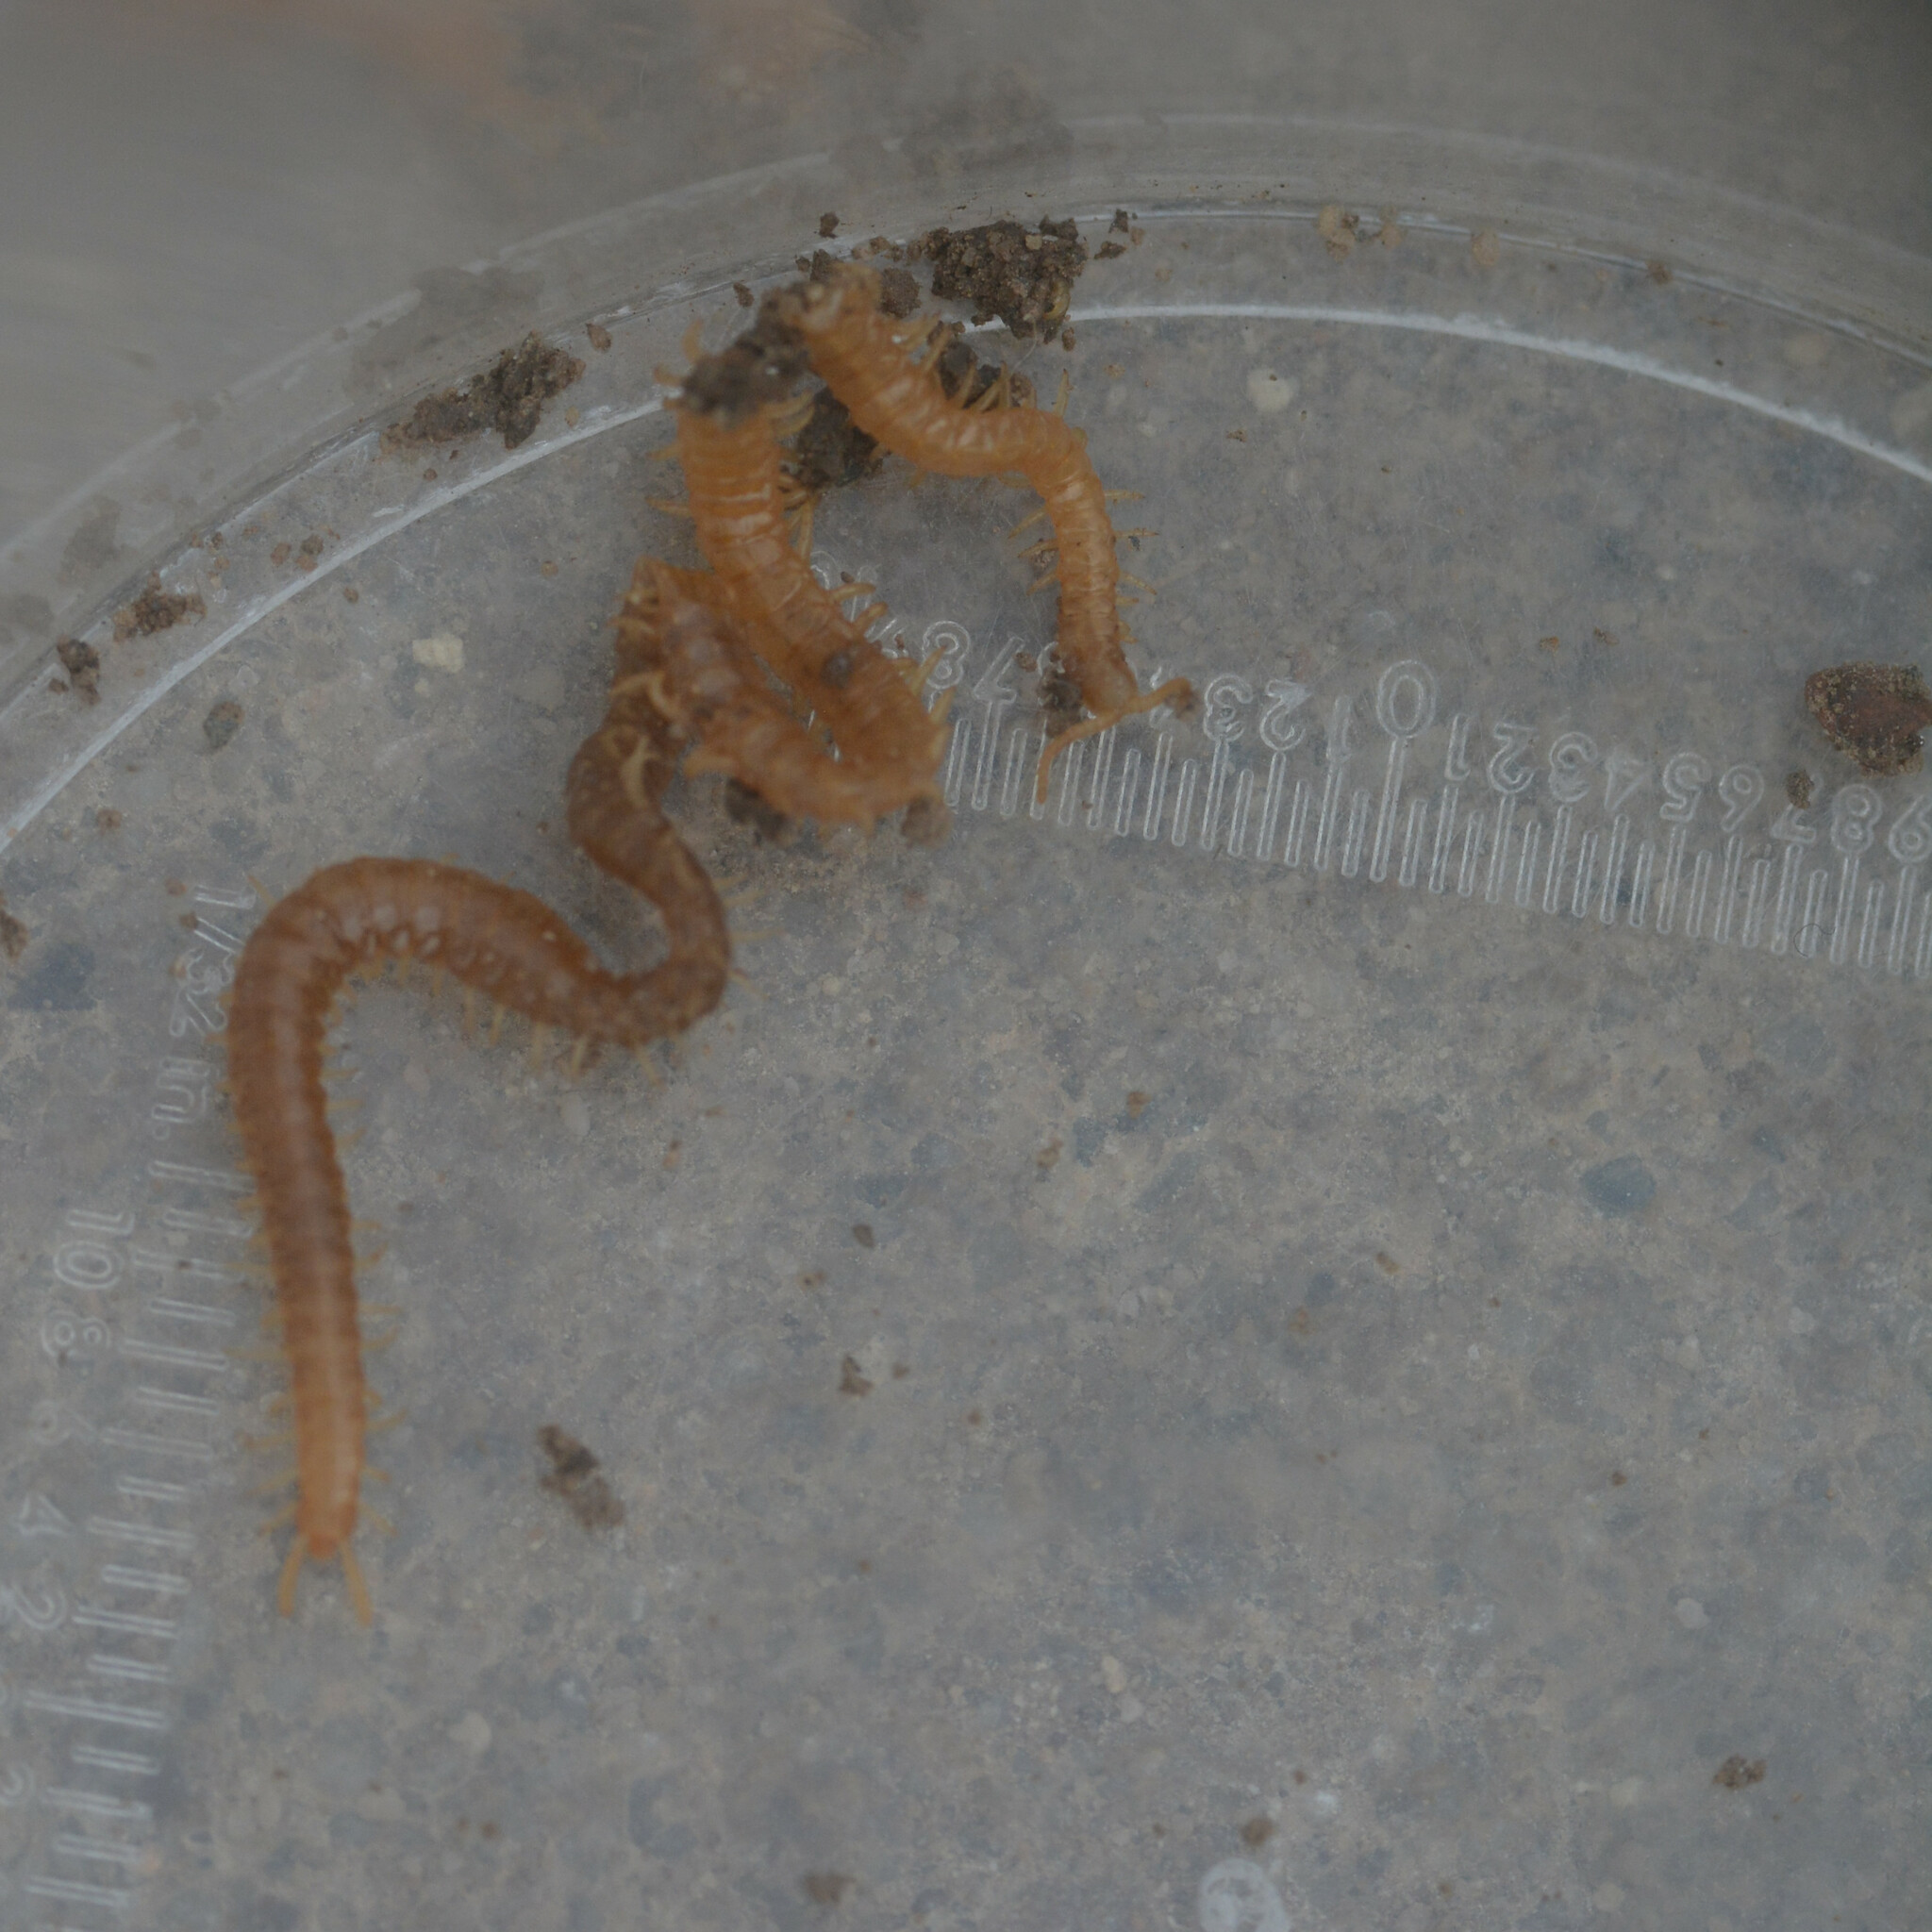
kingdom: Animalia
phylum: Arthropoda
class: Chilopoda
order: Geophilomorpha
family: Himantariidae
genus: Stigmatogaster
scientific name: Stigmatogaster subterranea
